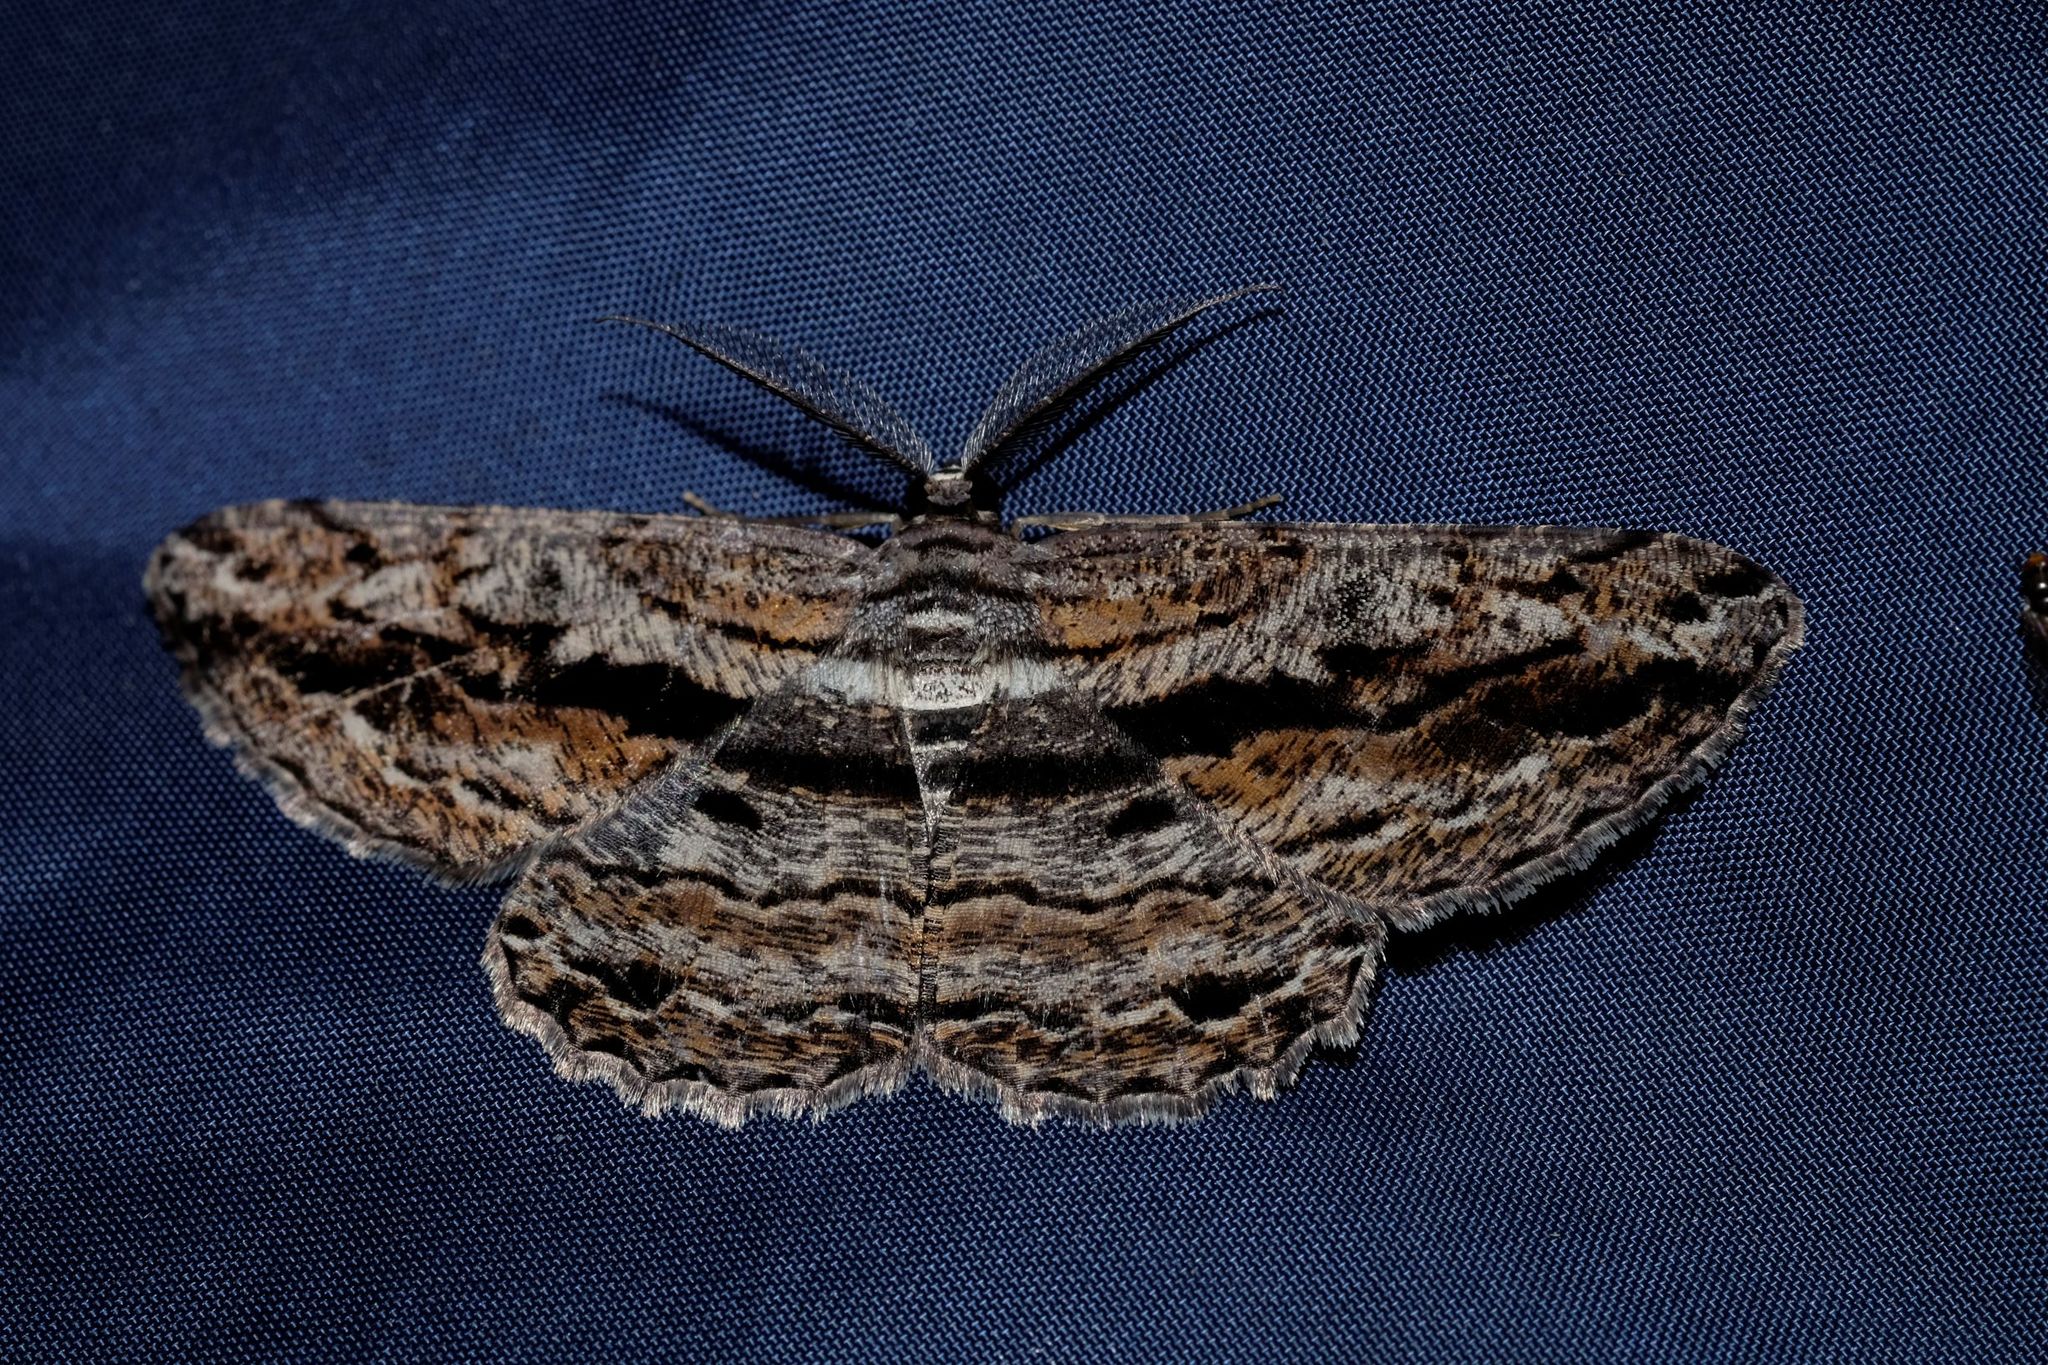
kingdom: Animalia
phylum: Arthropoda
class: Insecta
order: Lepidoptera
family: Geometridae
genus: Scioglyptis
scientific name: Scioglyptis chionomera
